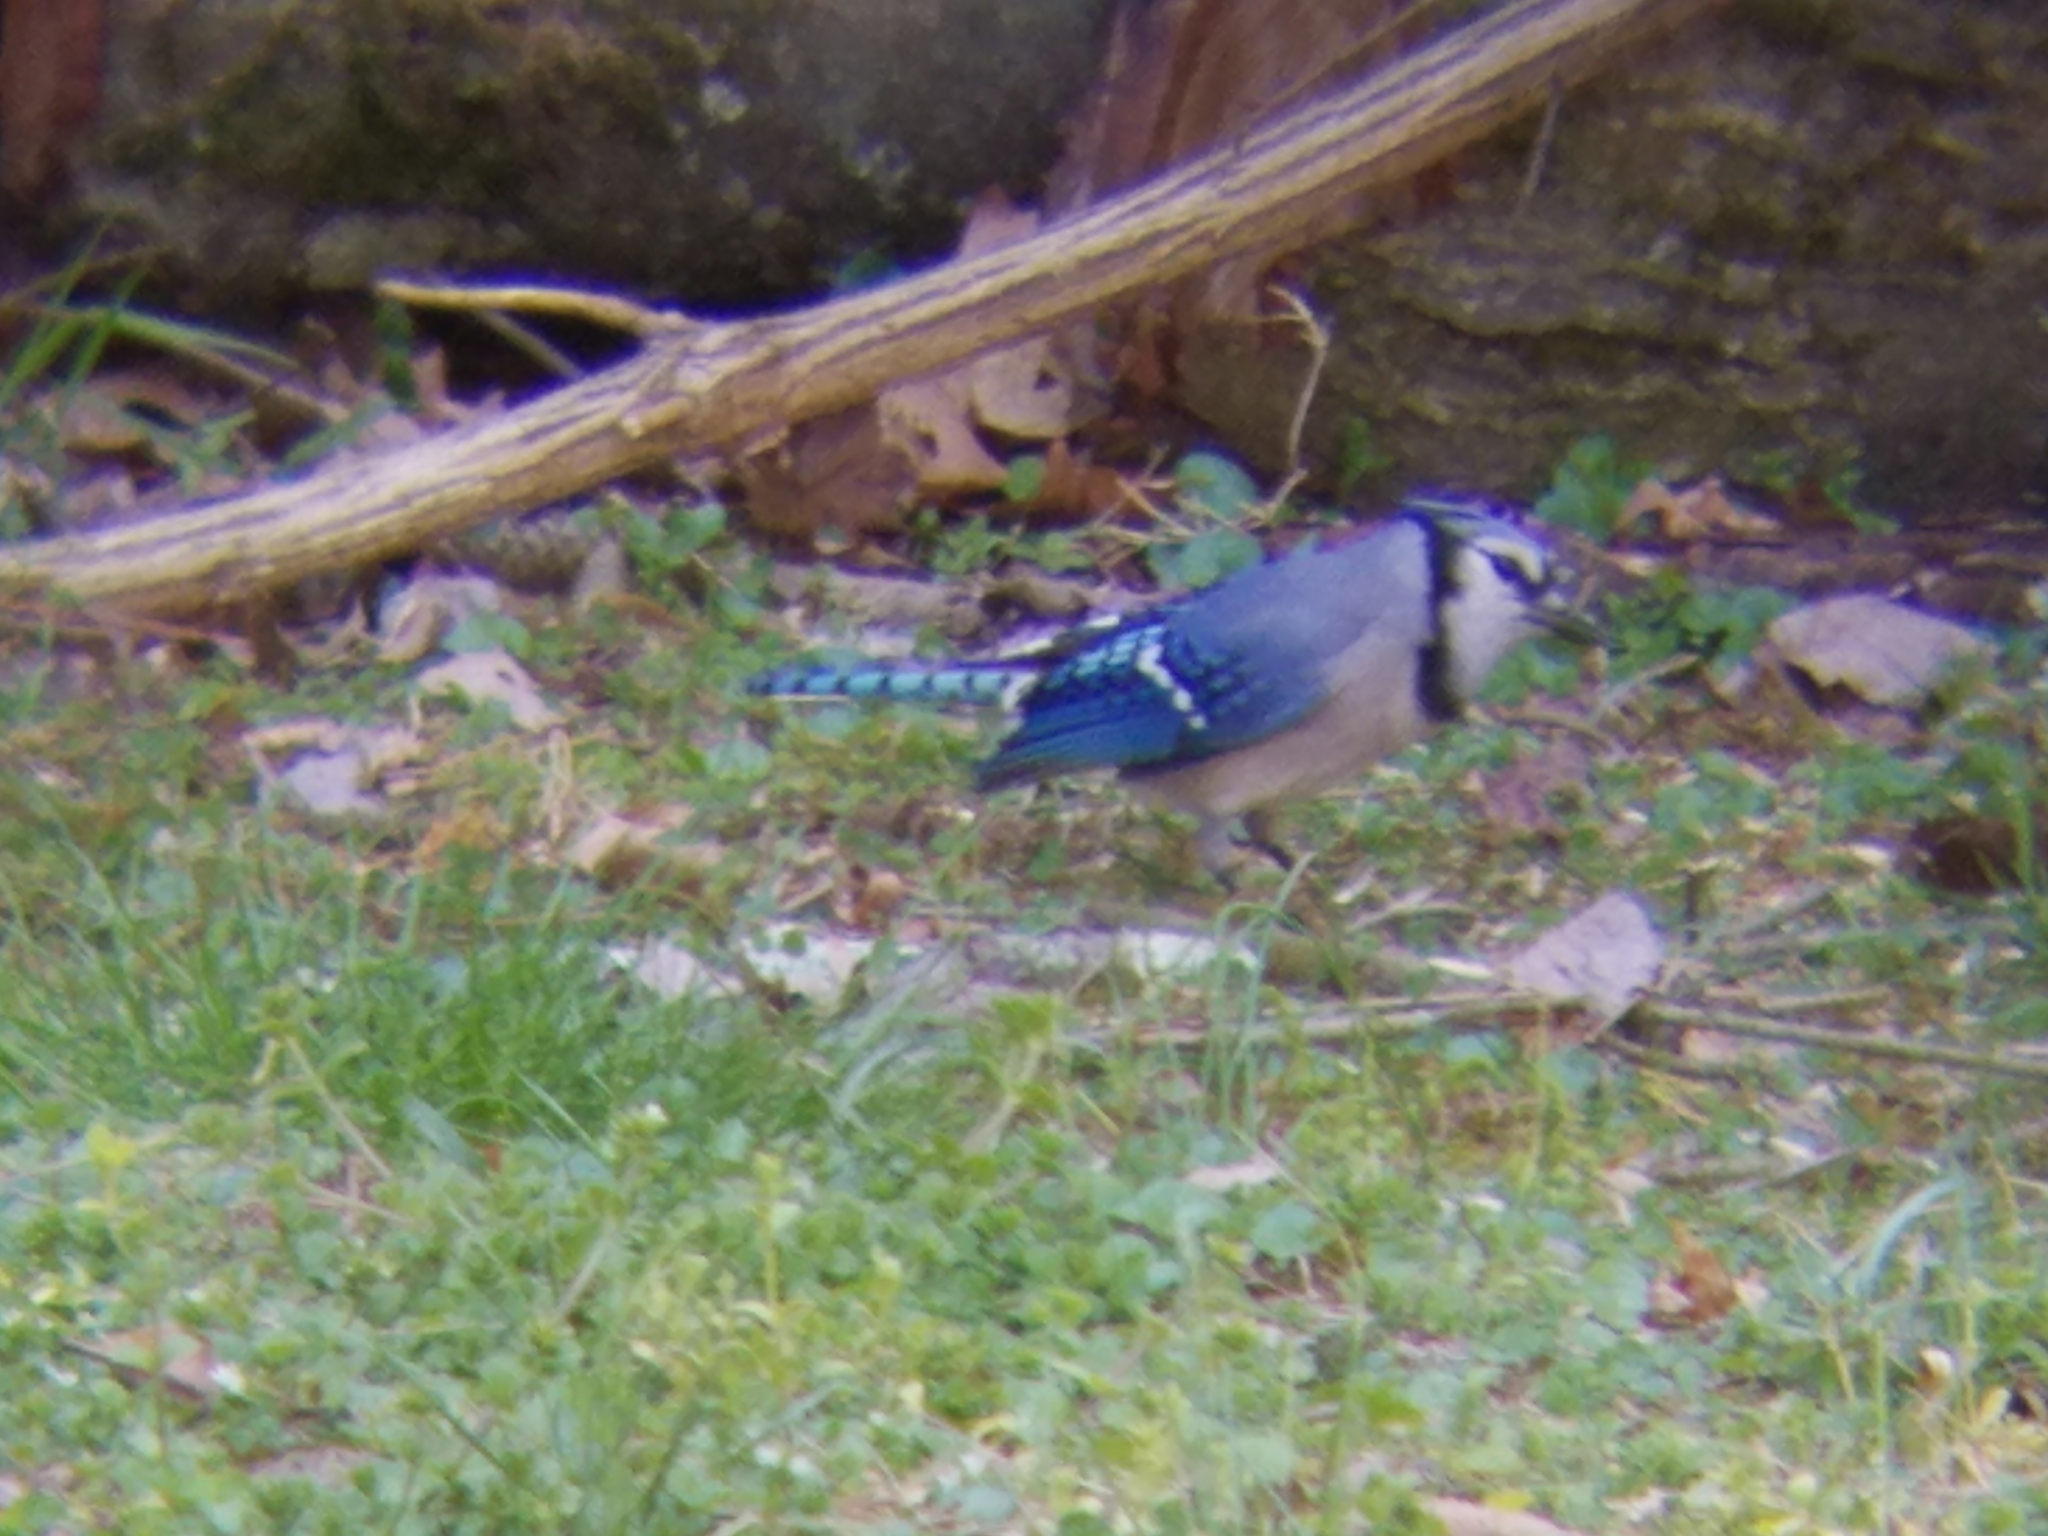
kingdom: Animalia
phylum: Chordata
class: Aves
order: Passeriformes
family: Corvidae
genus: Cyanocitta
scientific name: Cyanocitta cristata
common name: Blue jay
